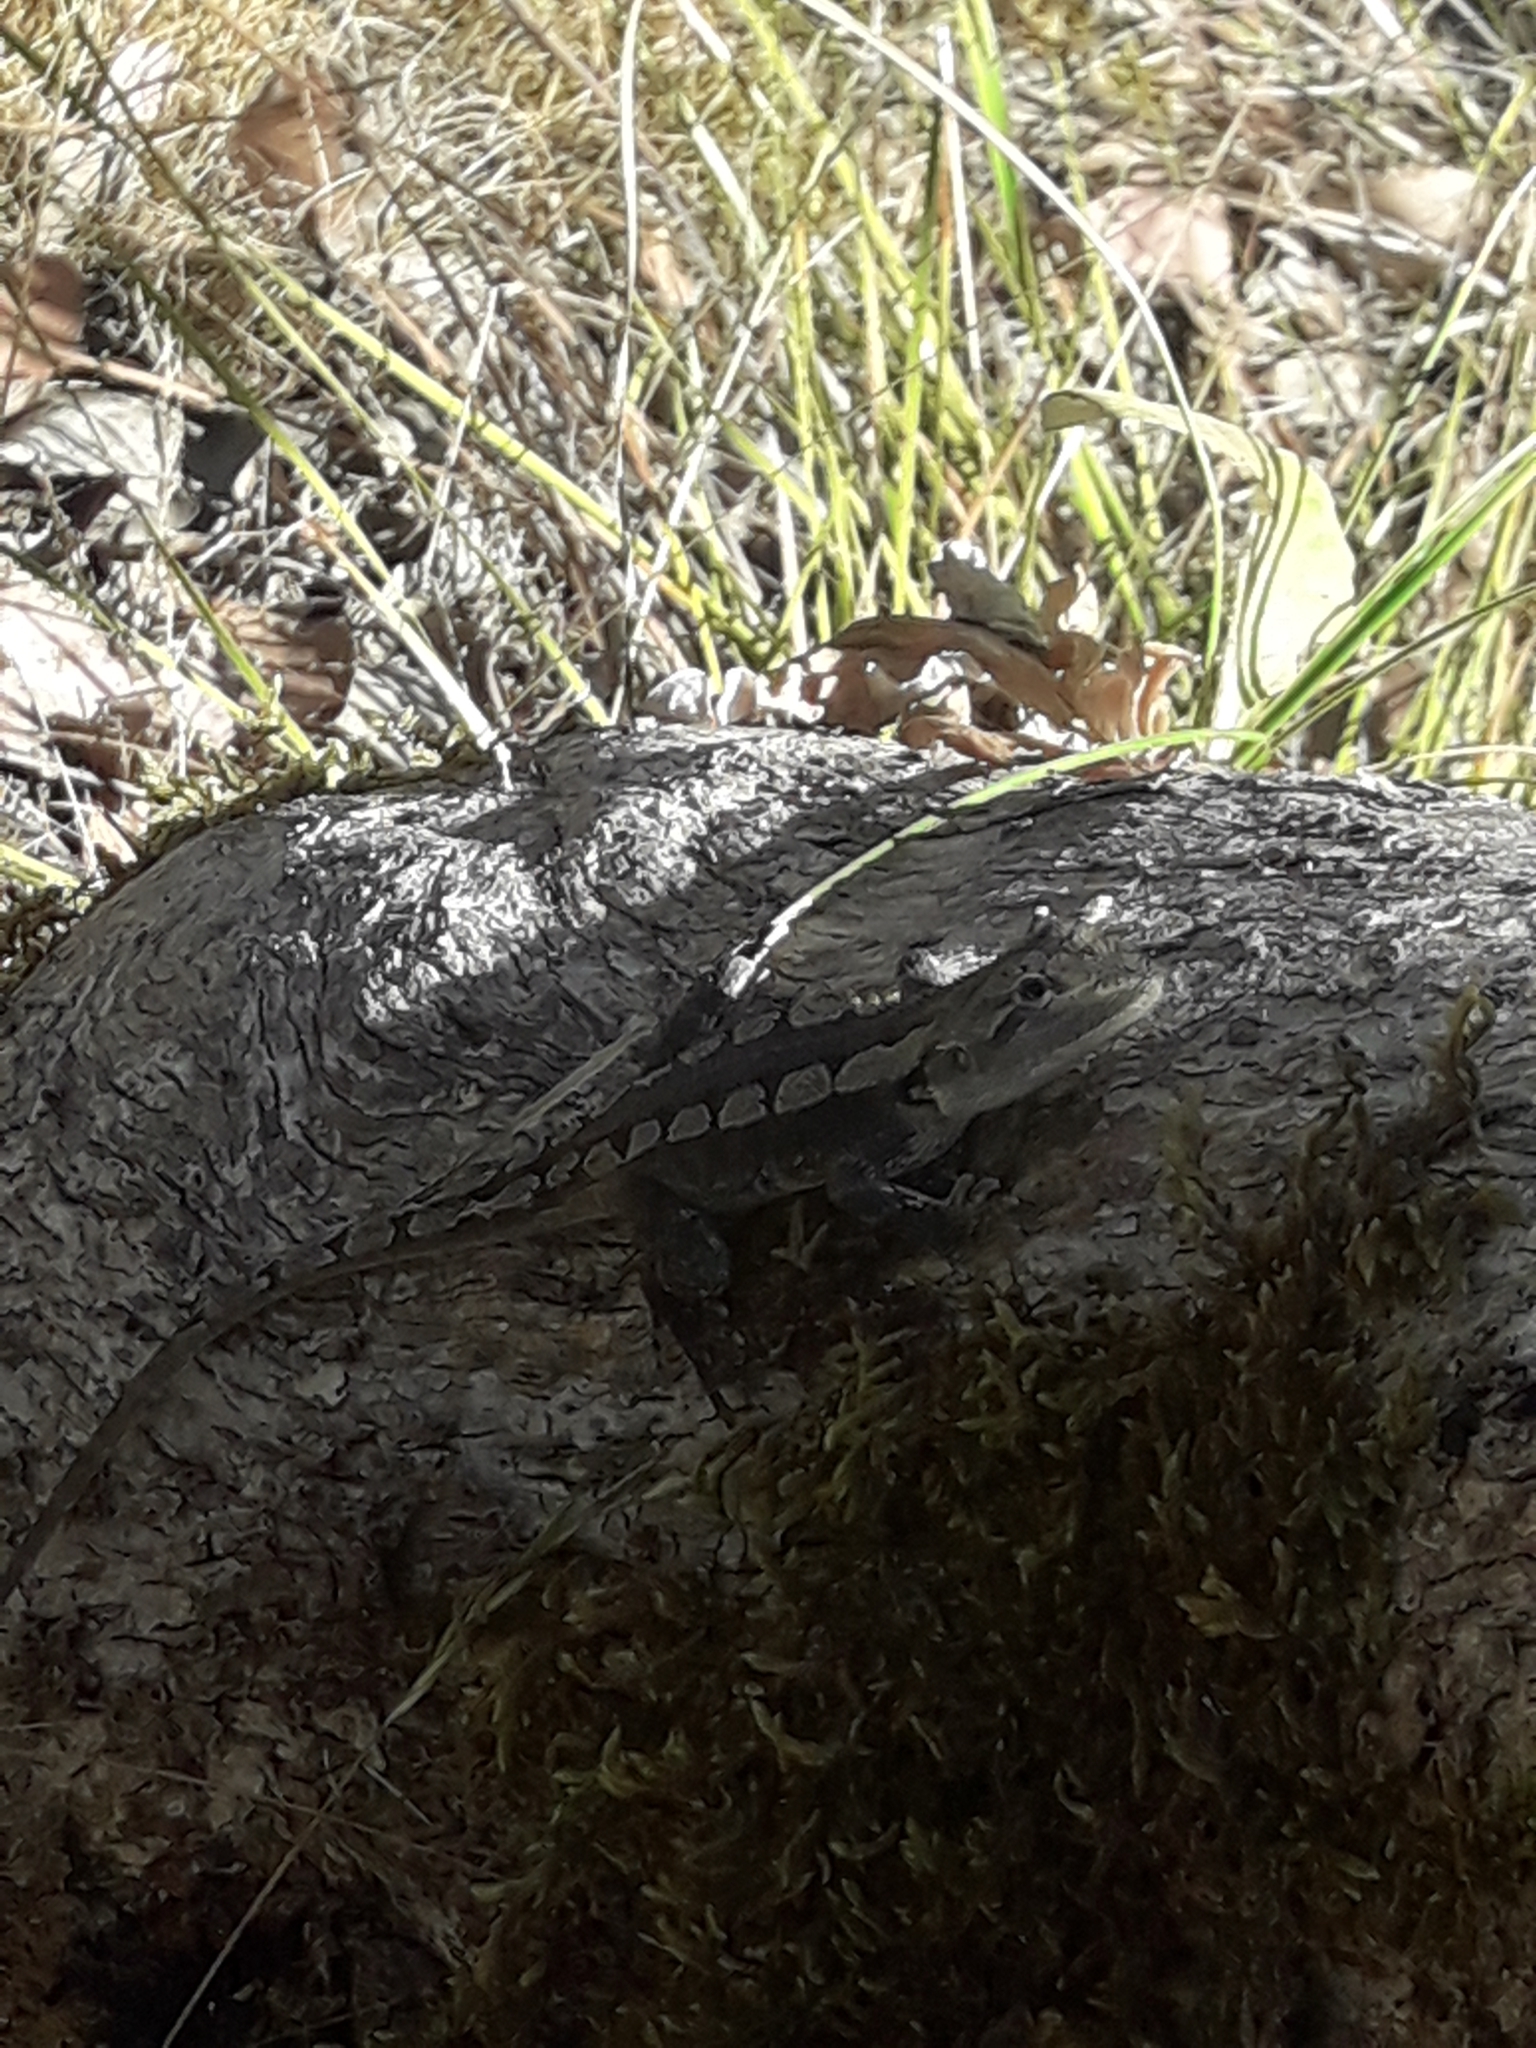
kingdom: Animalia
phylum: Chordata
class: Squamata
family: Agamidae
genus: Amphibolurus
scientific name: Amphibolurus muricatus
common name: Jacky lizard
